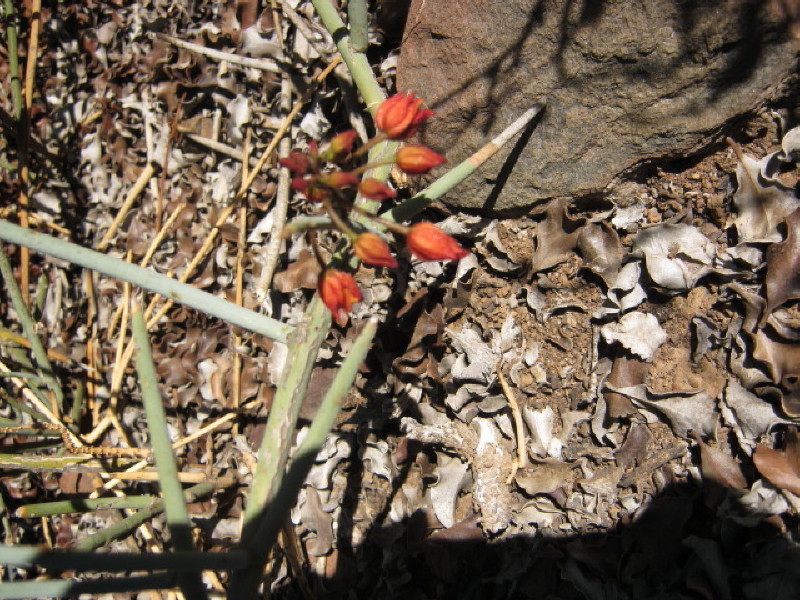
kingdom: Plantae
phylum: Tracheophyta
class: Magnoliopsida
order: Brassicales
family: Capparaceae
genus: Cadaba
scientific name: Cadaba aphylla
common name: Black storm
